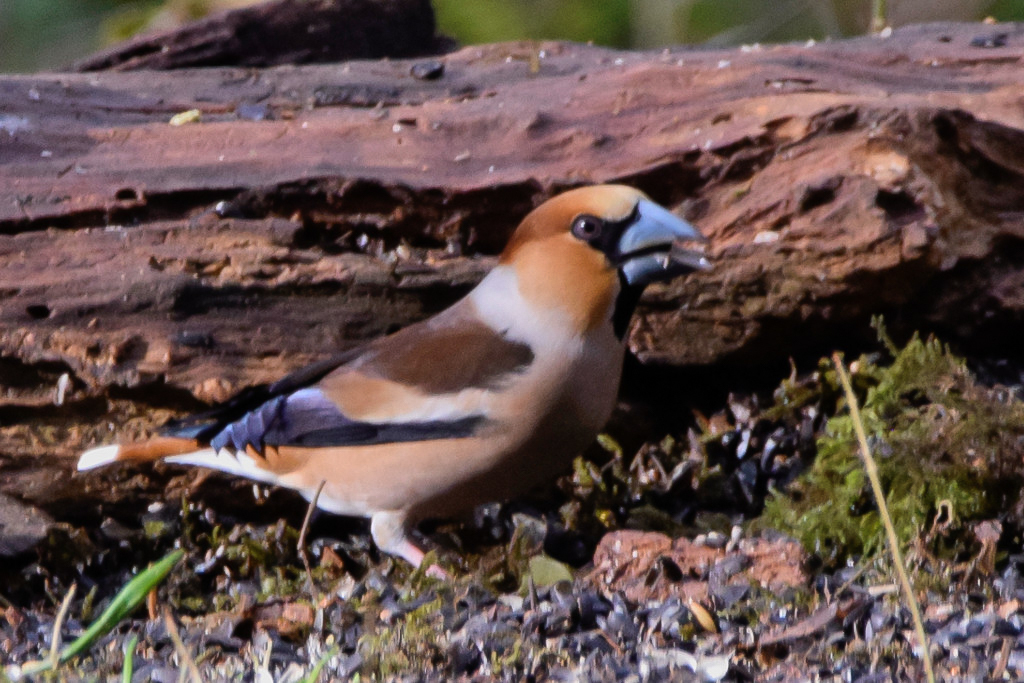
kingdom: Animalia
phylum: Chordata
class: Aves
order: Passeriformes
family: Fringillidae
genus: Coccothraustes
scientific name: Coccothraustes coccothraustes
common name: Hawfinch
